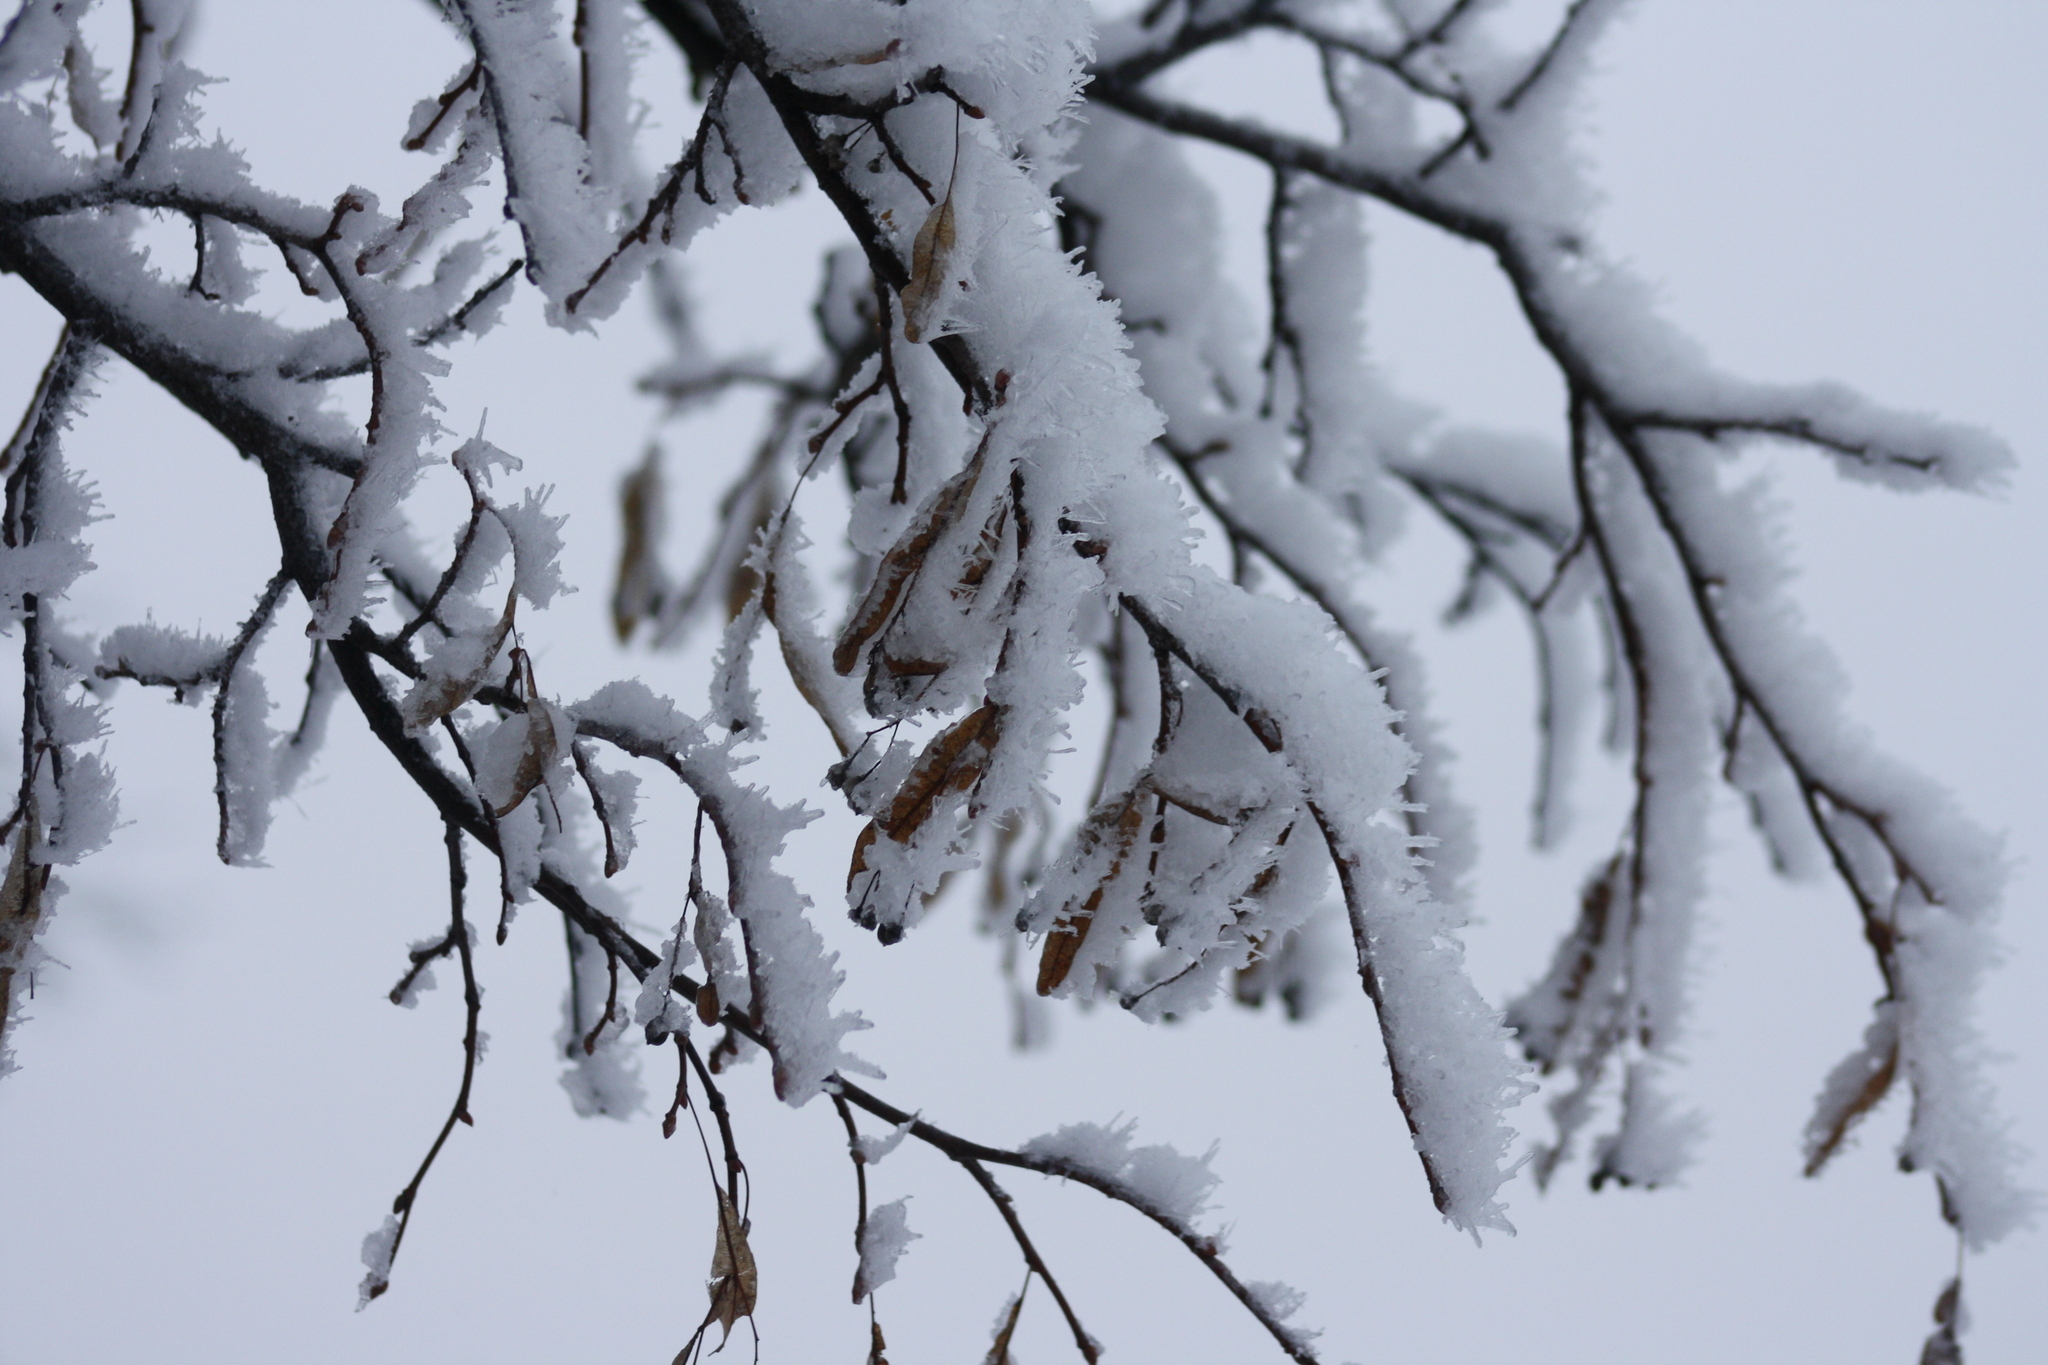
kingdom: Plantae
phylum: Tracheophyta
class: Magnoliopsida
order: Malvales
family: Malvaceae
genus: Tilia
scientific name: Tilia cordata
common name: Small-leaved lime
